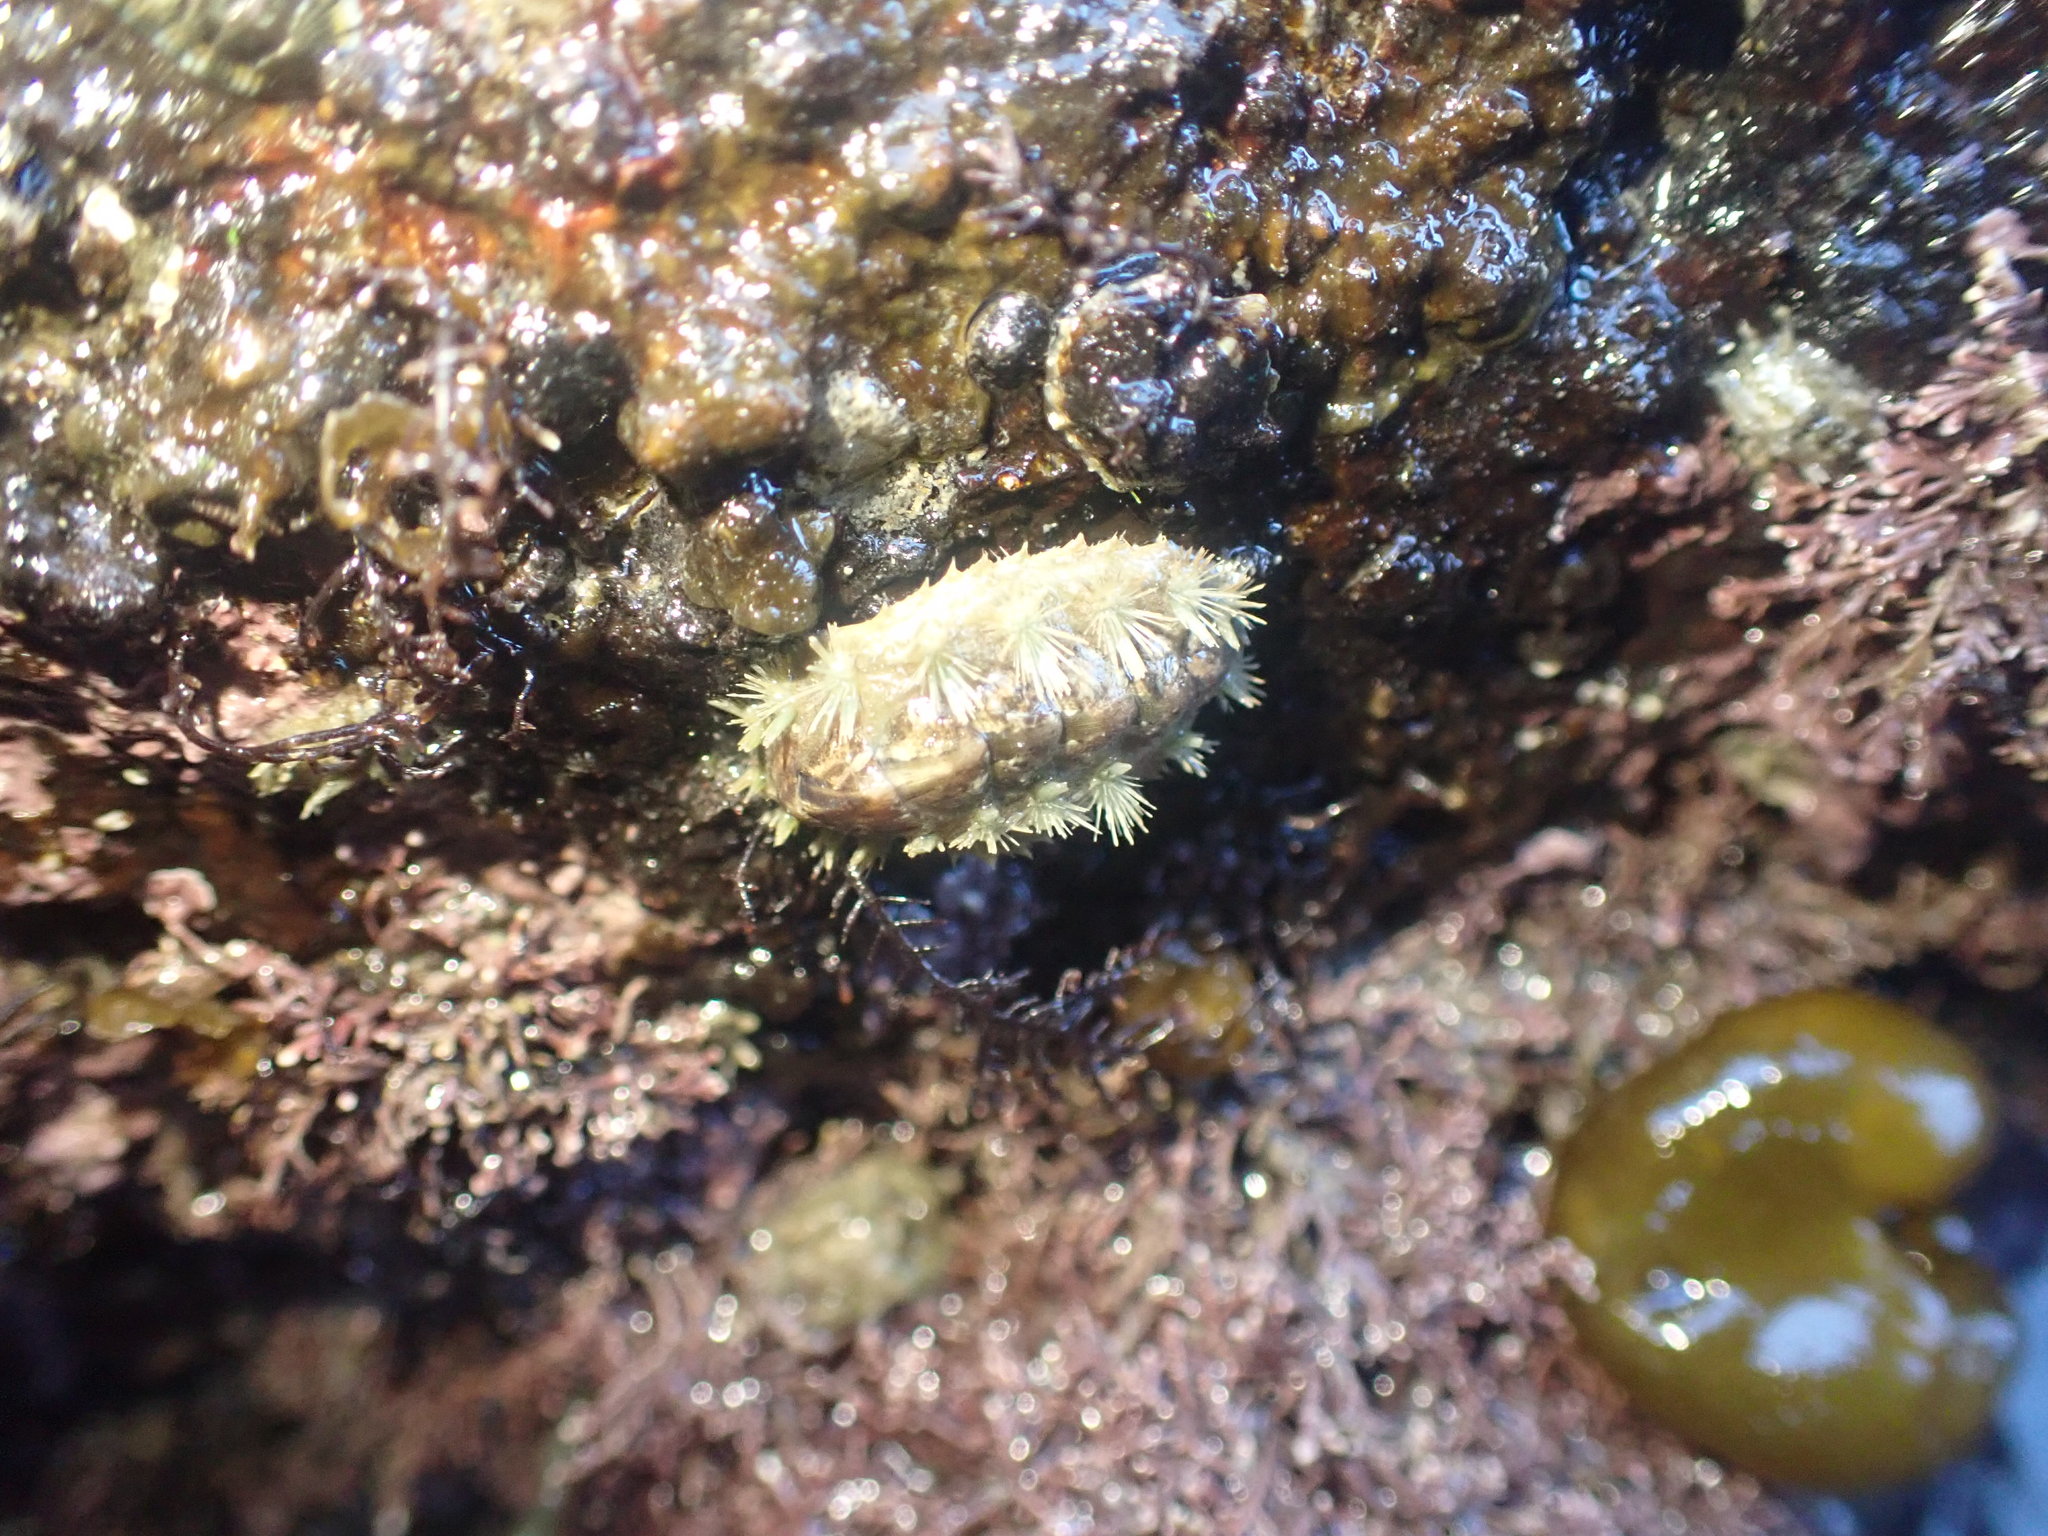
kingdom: Animalia
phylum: Mollusca
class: Polyplacophora
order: Chitonida
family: Acanthochitonidae
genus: Acanthochitona
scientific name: Acanthochitona zelandica
